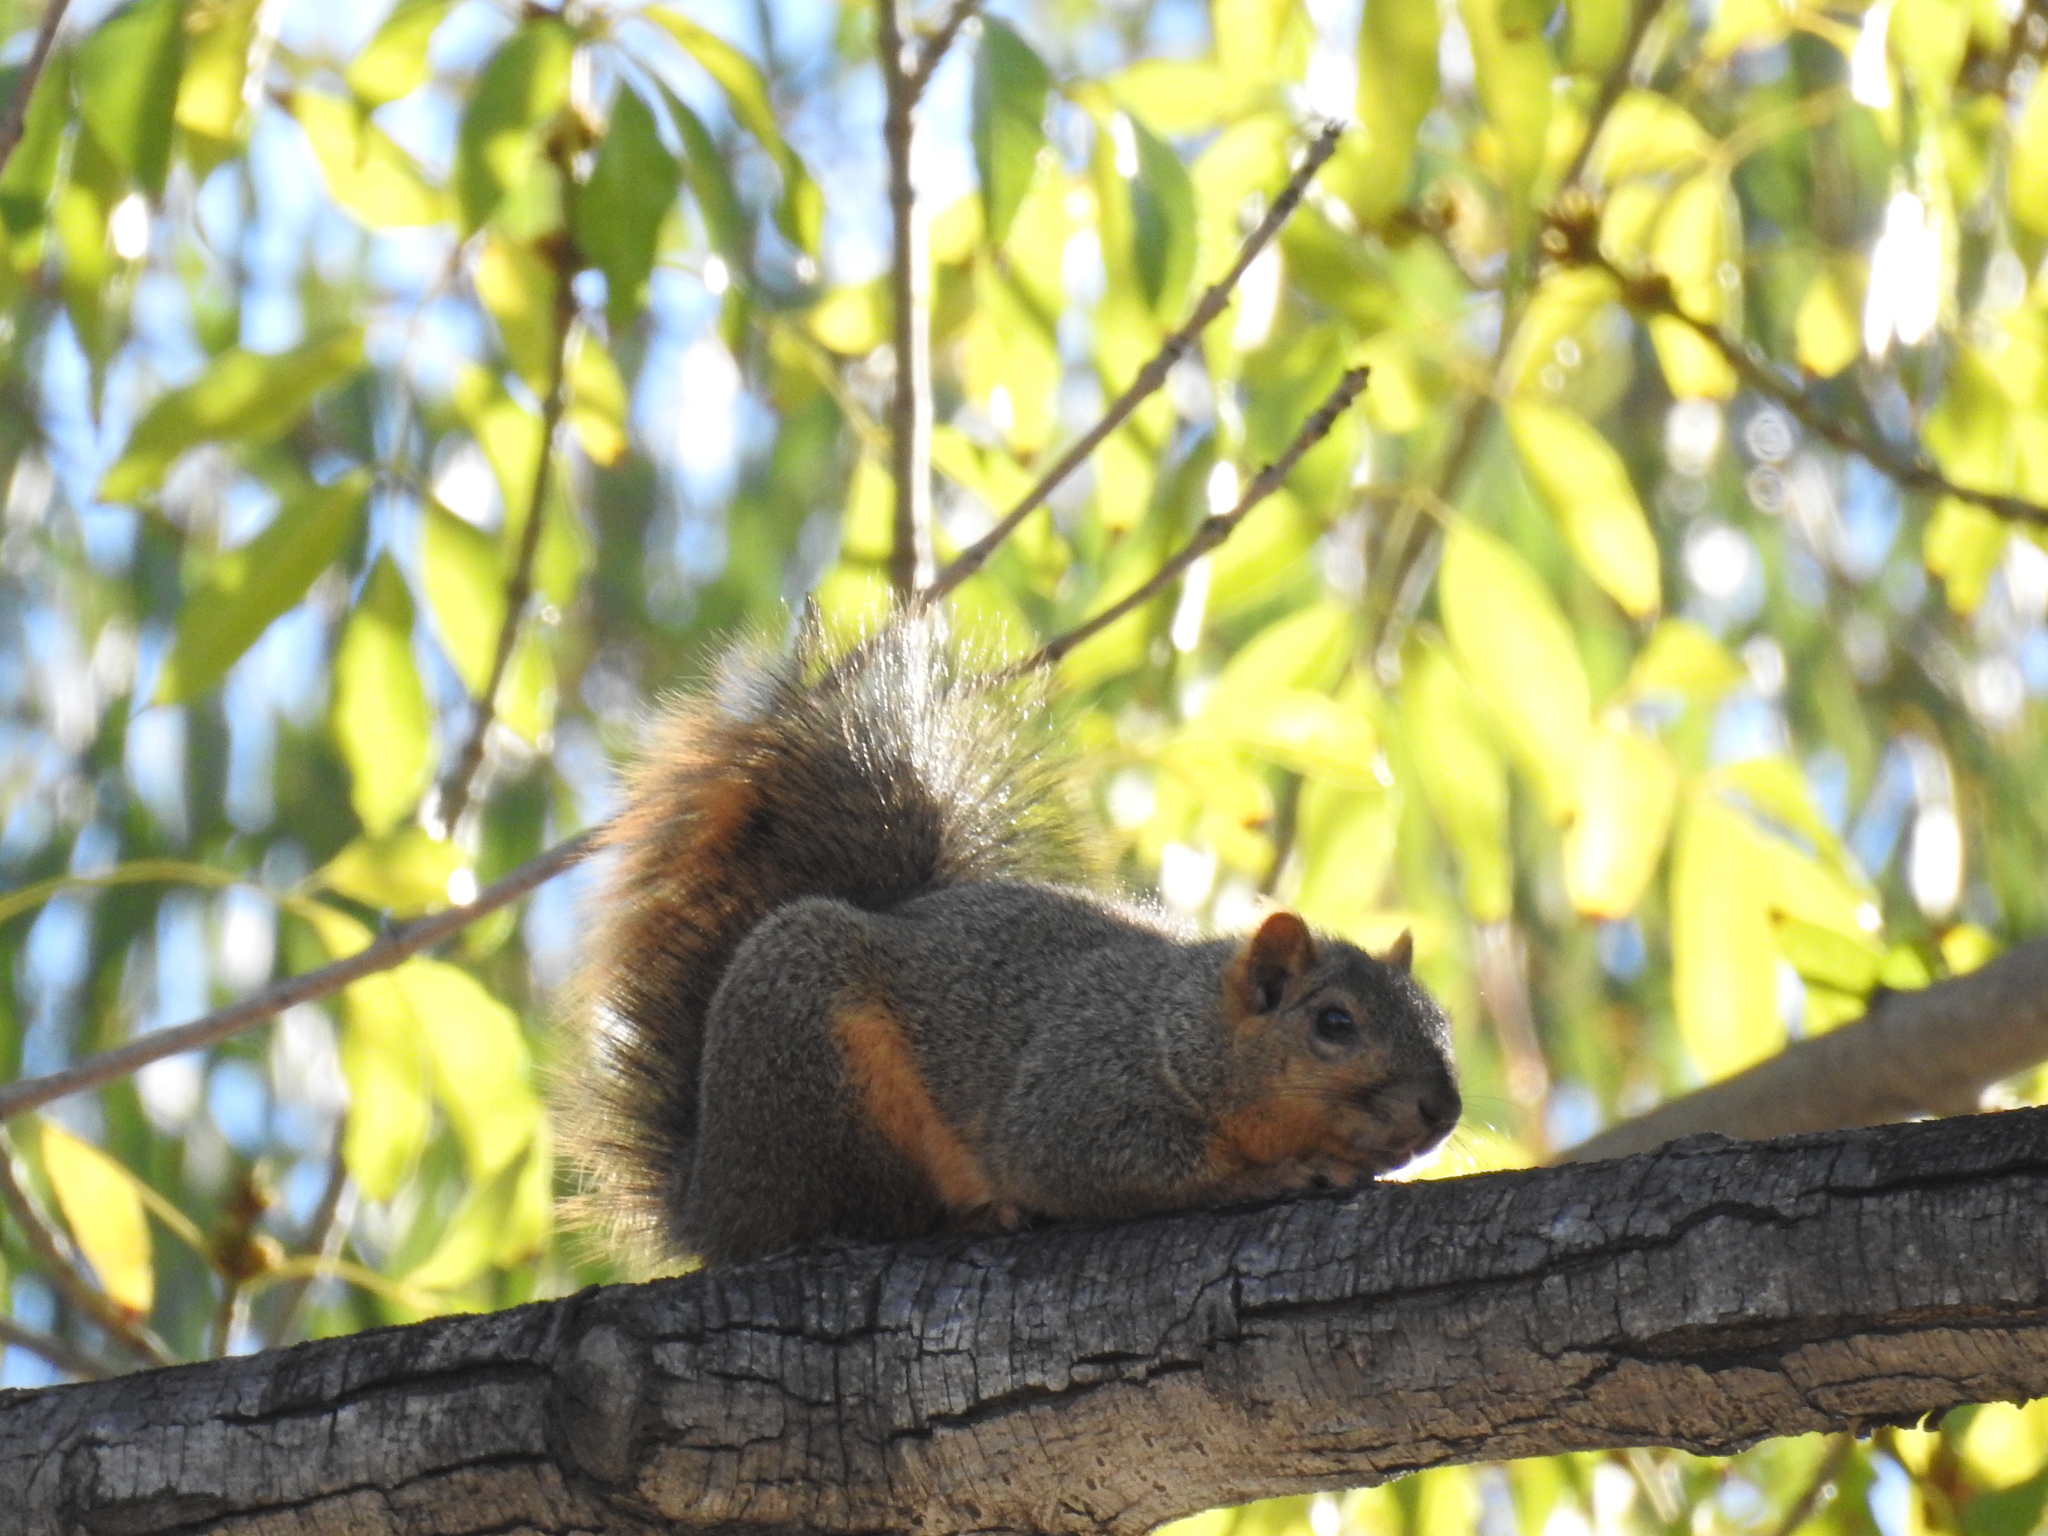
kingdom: Animalia
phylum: Chordata
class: Mammalia
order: Rodentia
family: Sciuridae
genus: Sciurus
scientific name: Sciurus niger
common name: Fox squirrel
